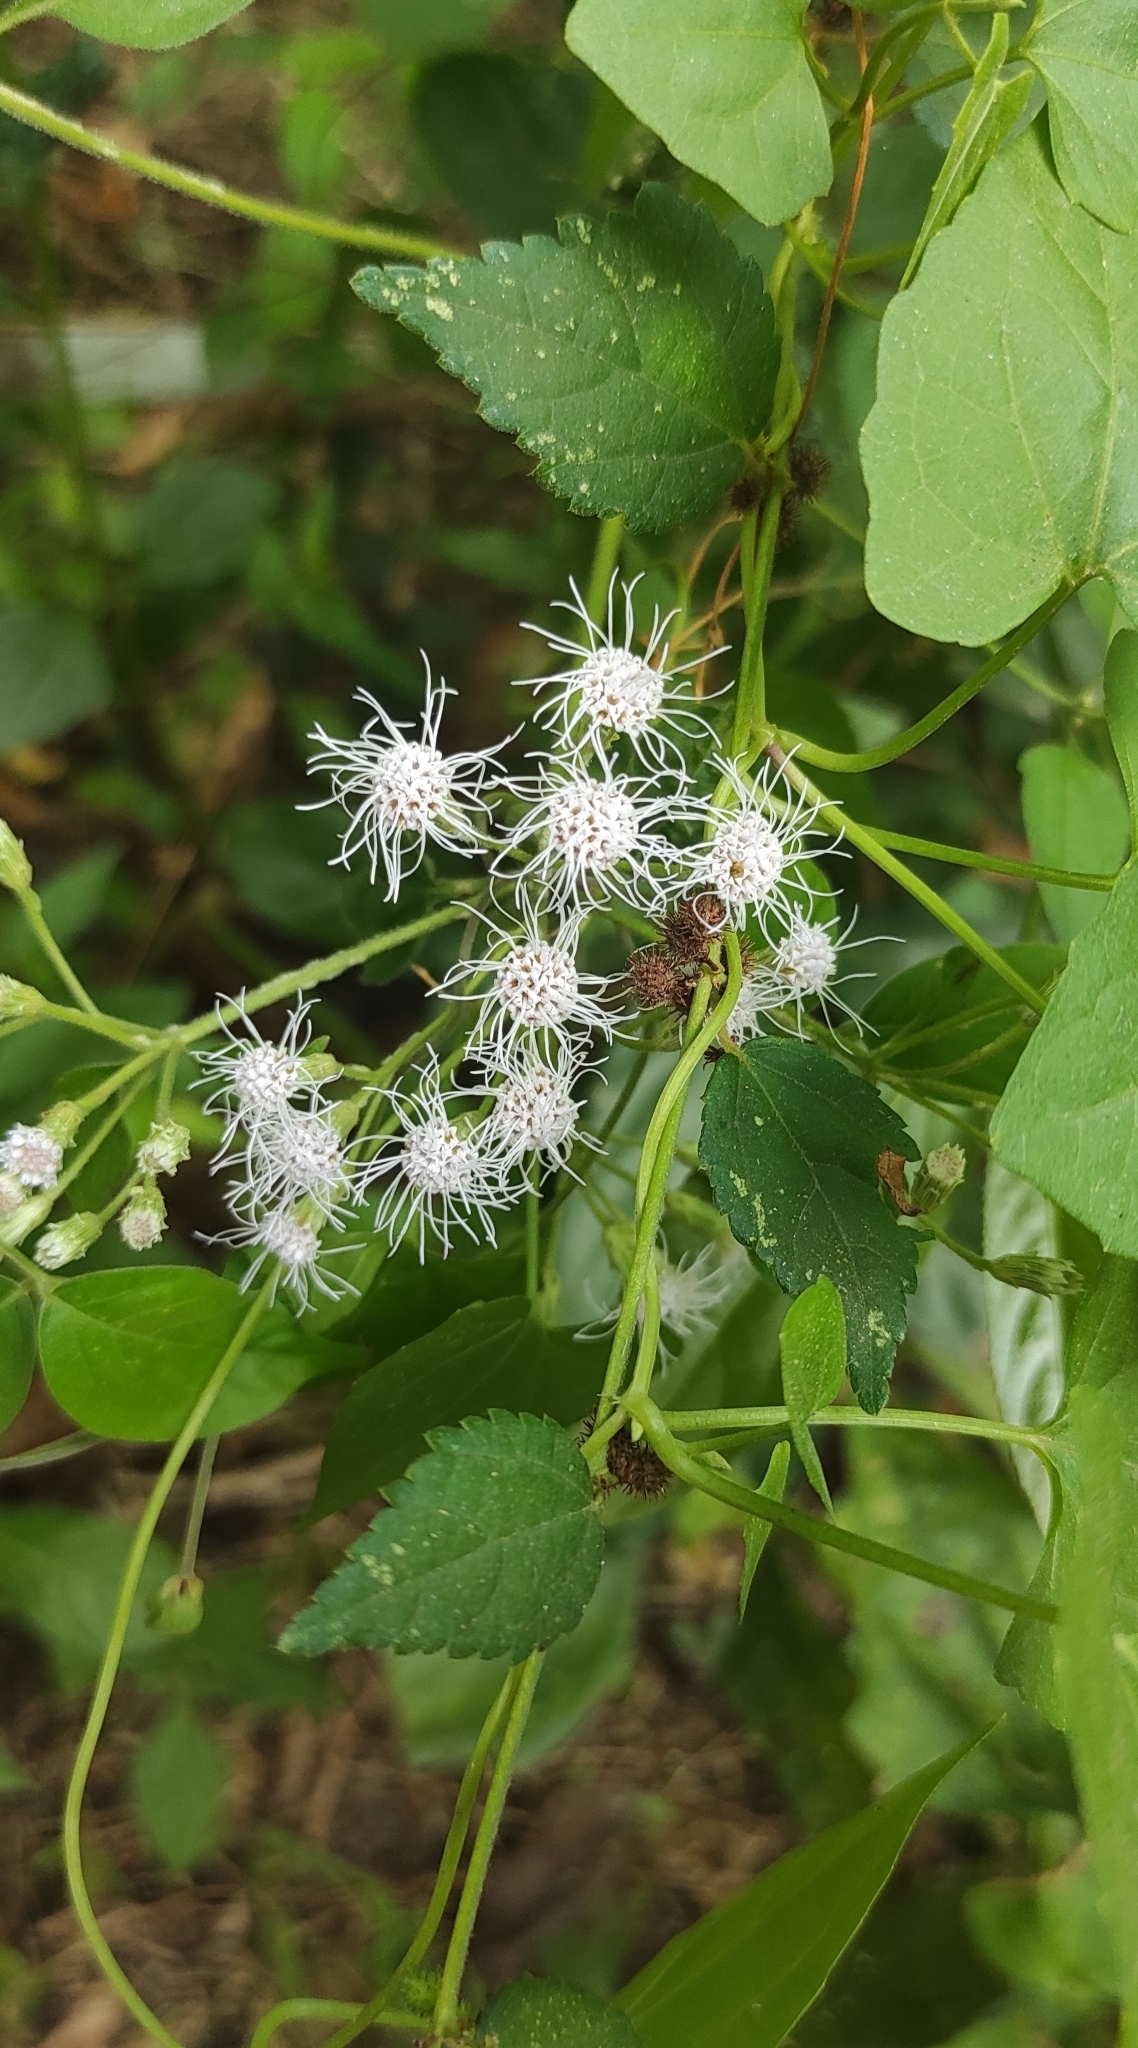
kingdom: Plantae
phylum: Tracheophyta
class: Magnoliopsida
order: Asterales
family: Asteraceae
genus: Chromolaena
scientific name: Chromolaena odorata
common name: Siamweed
